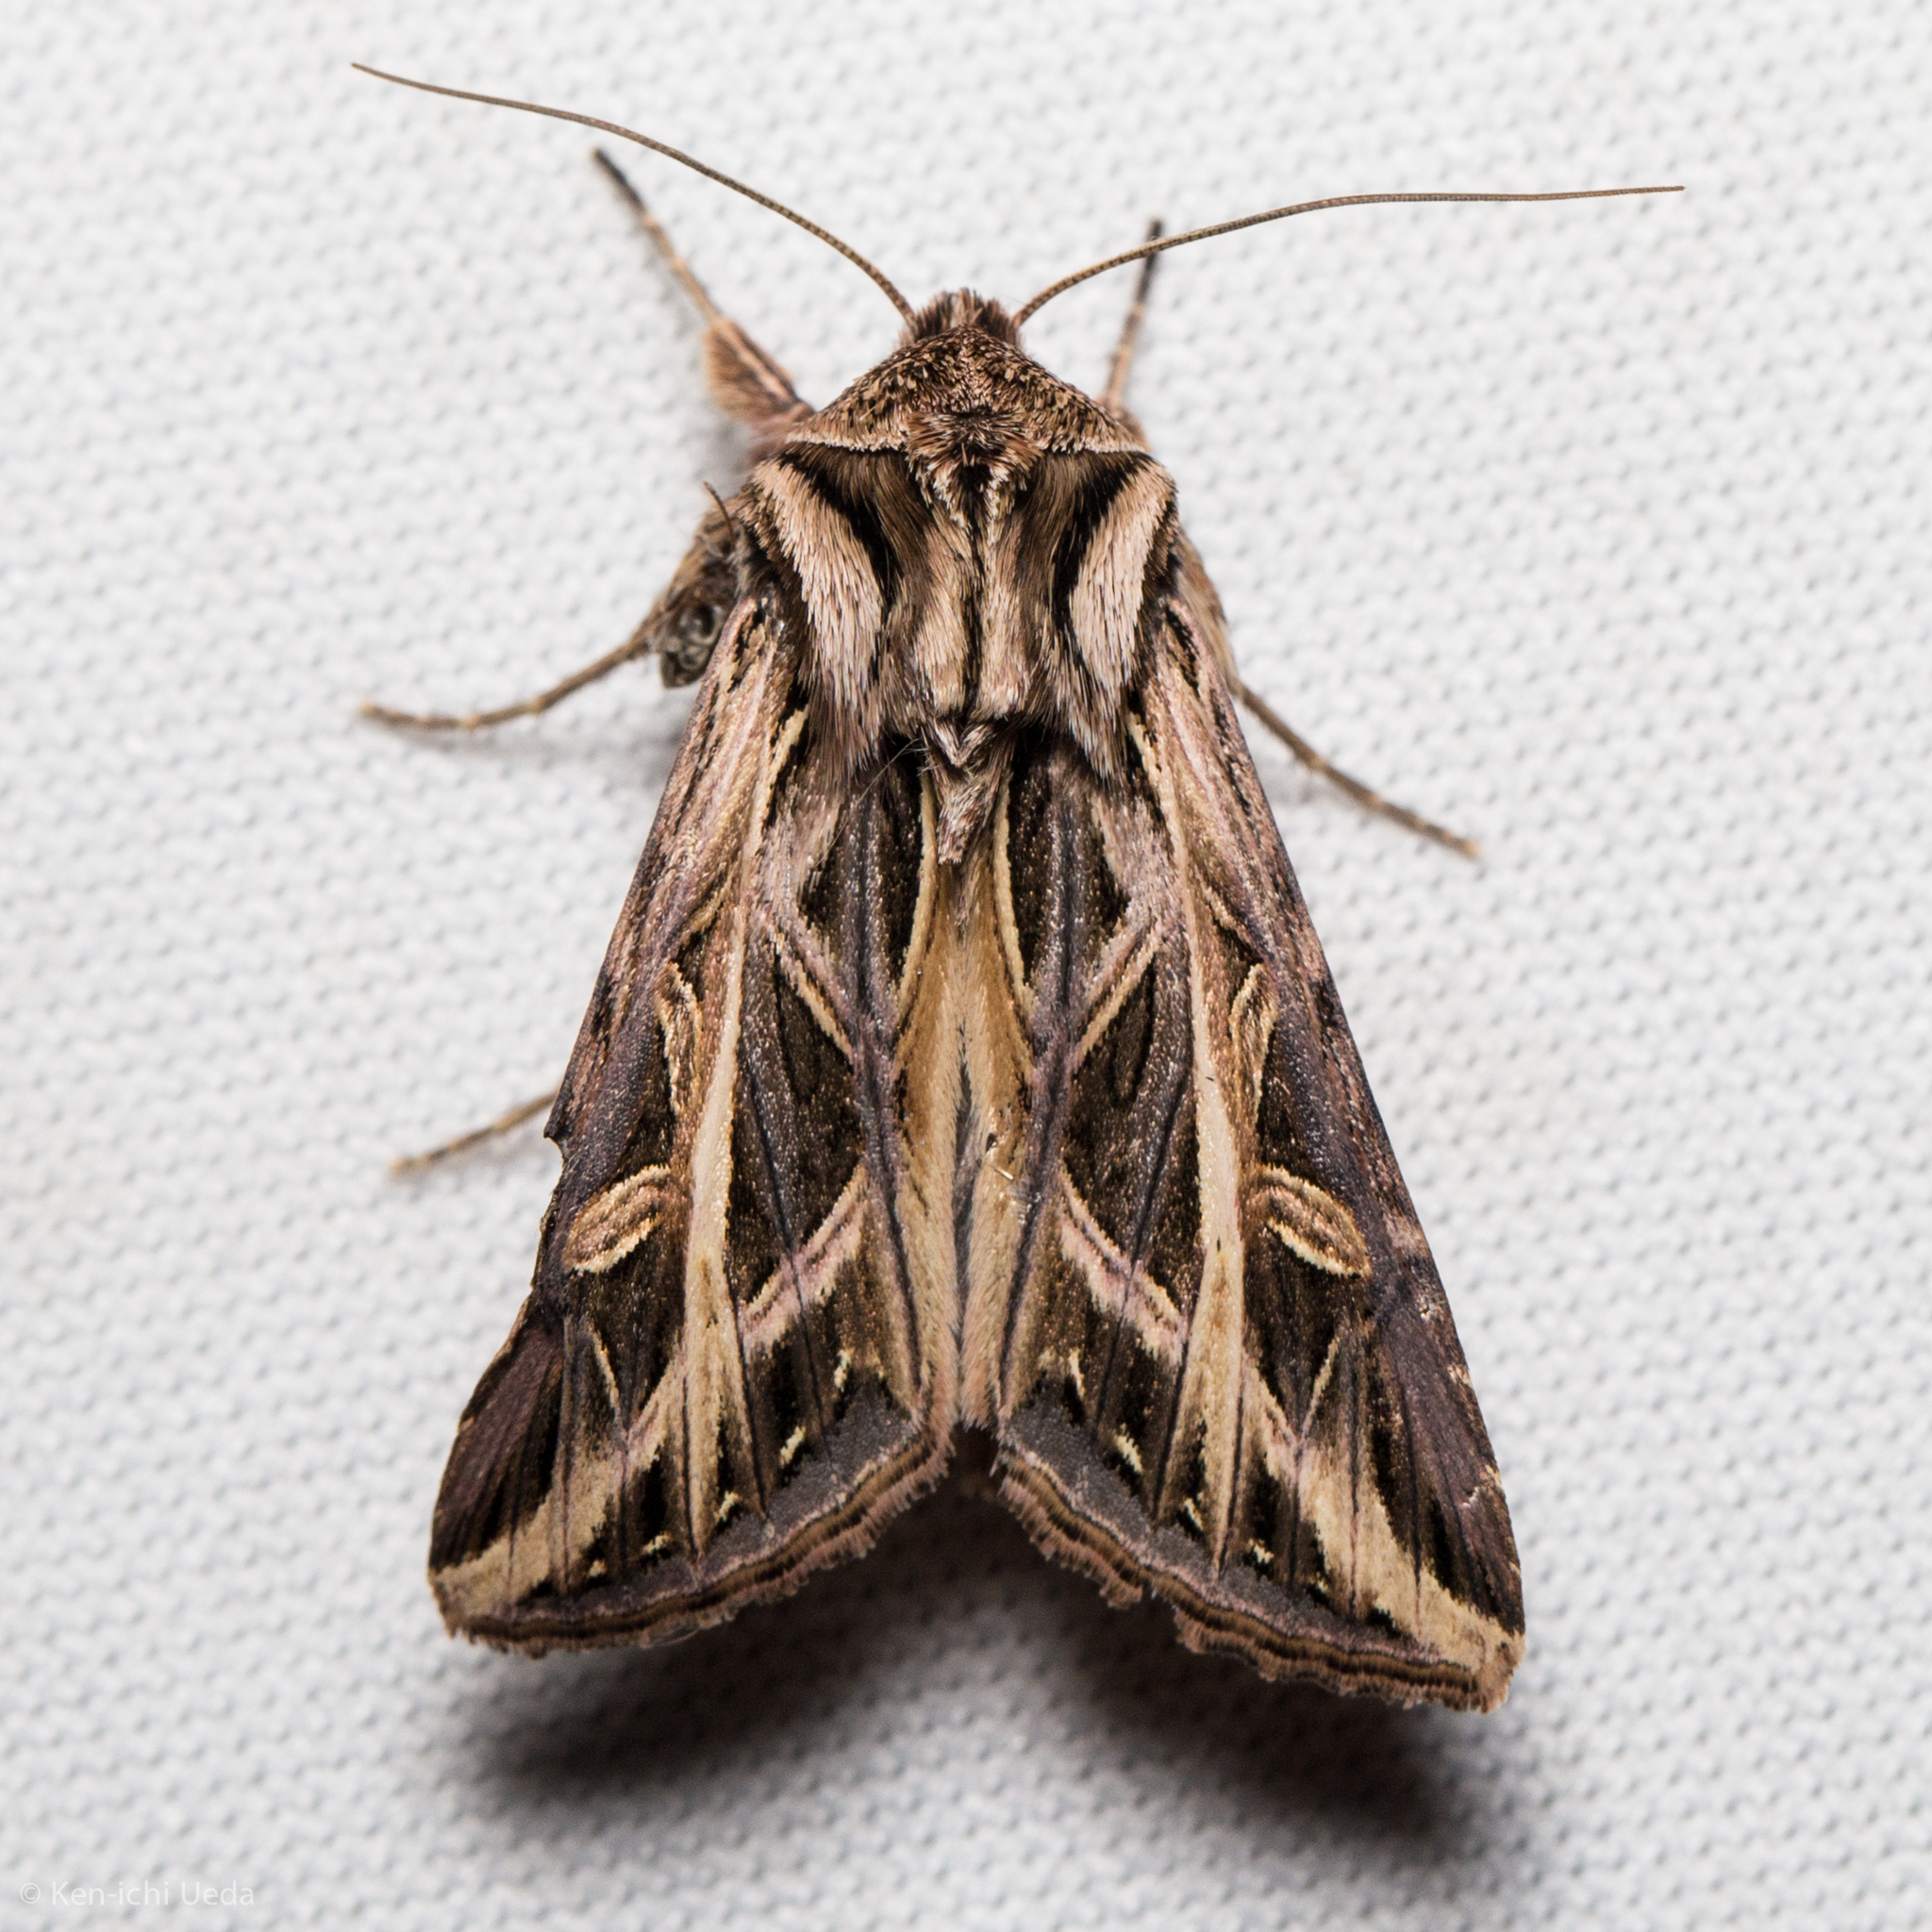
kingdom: Animalia
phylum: Arthropoda
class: Insecta
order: Lepidoptera
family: Noctuidae
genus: Dargida
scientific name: Dargida procinctus
